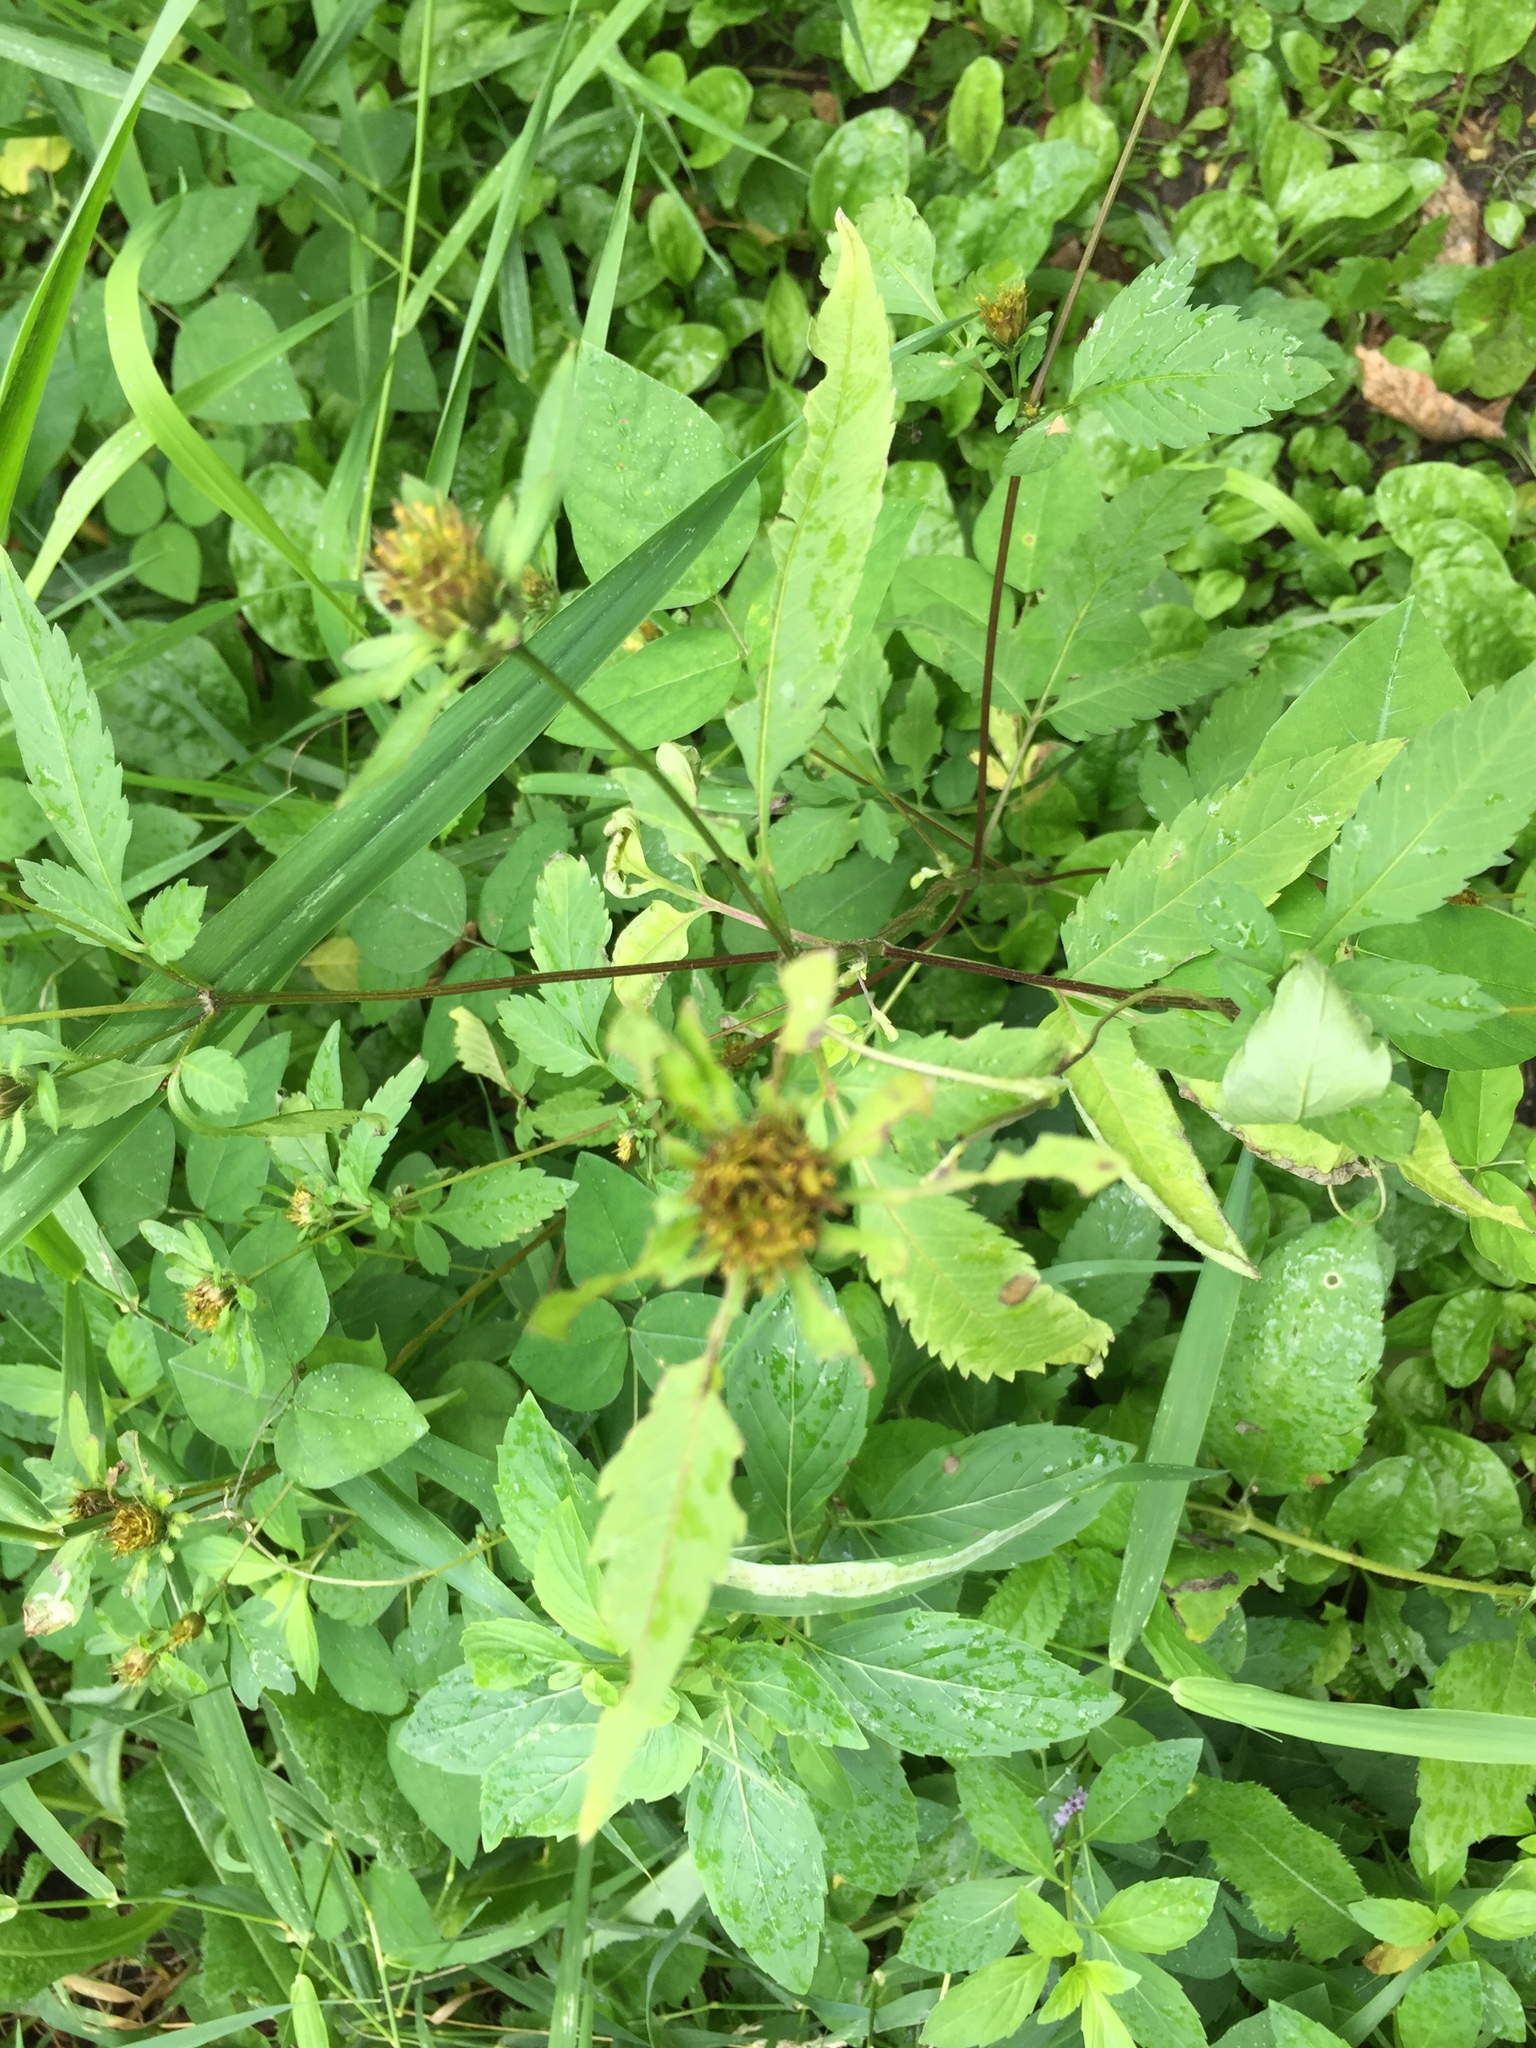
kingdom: Plantae
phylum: Tracheophyta
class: Magnoliopsida
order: Asterales
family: Asteraceae
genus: Bidens
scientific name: Bidens frondosa
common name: Beggarticks
